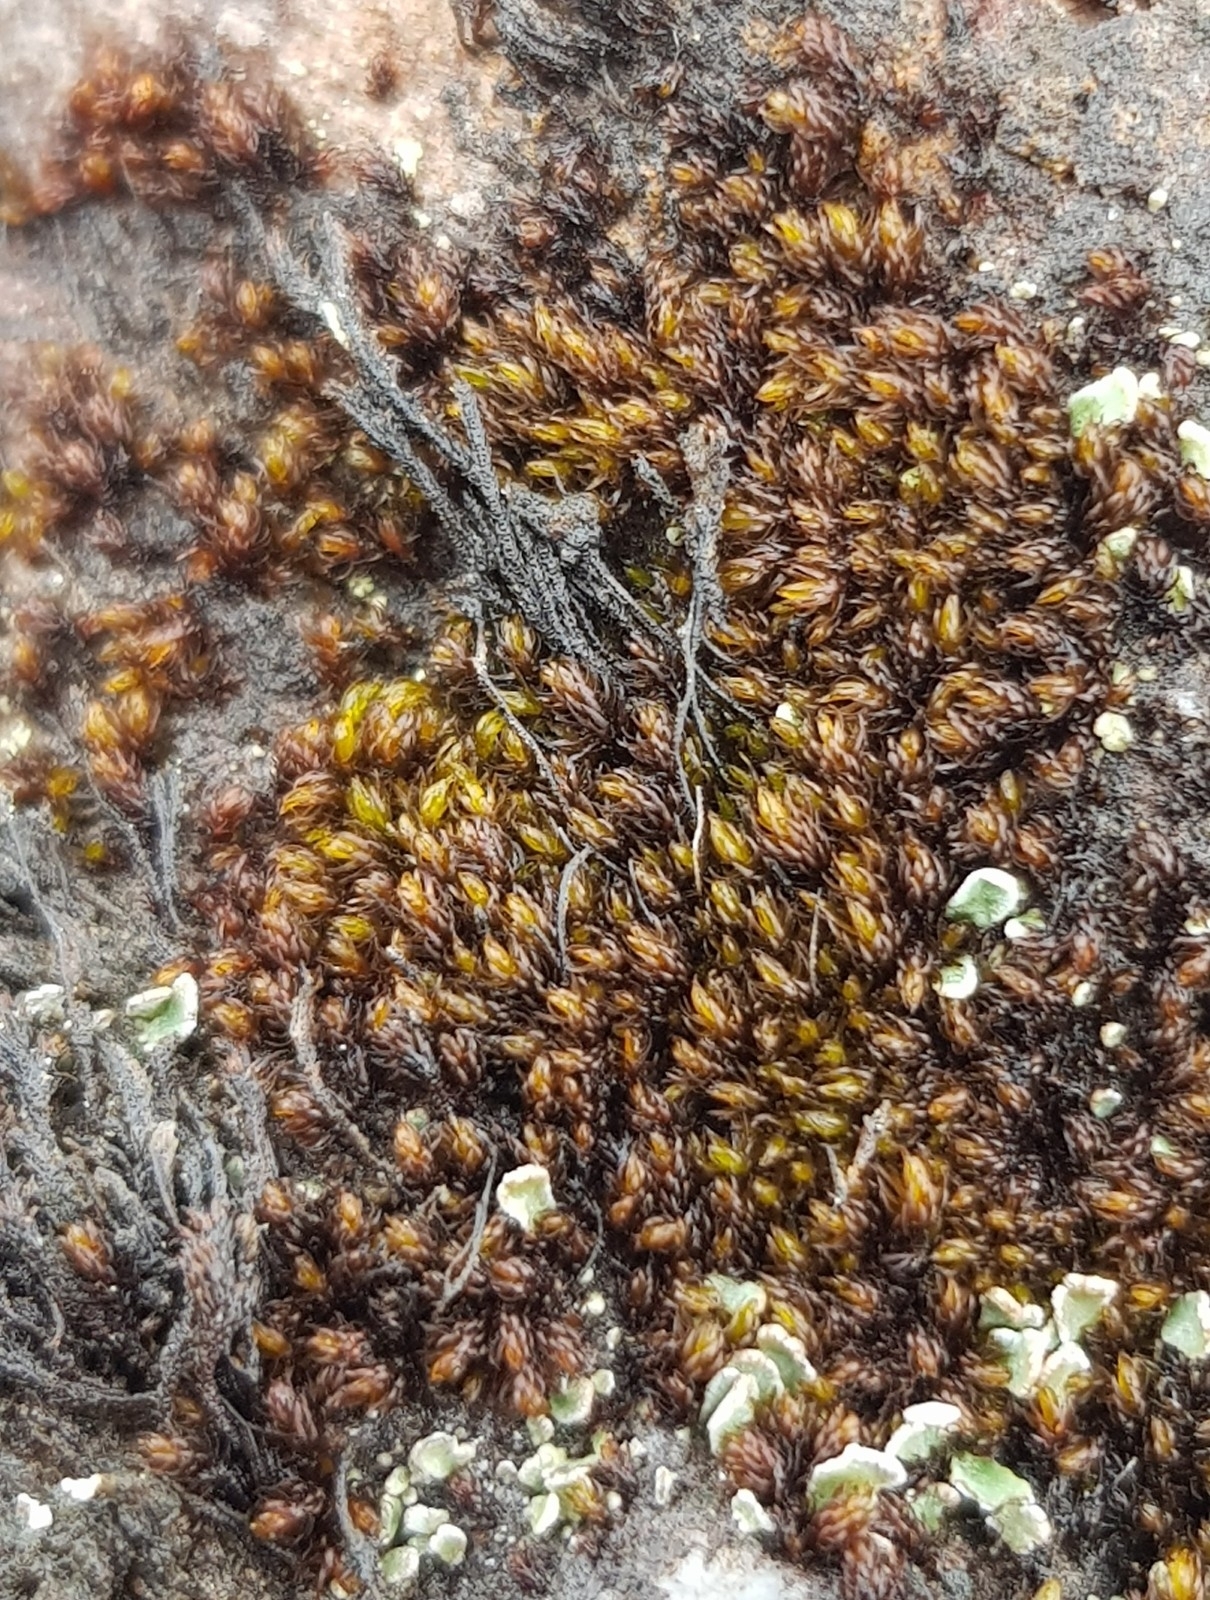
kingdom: Plantae
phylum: Bryophyta
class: Andreaeopsida
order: Andreaeales
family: Andreaeaceae
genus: Andreaea
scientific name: Andreaea rothii
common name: Dusky rock moss
